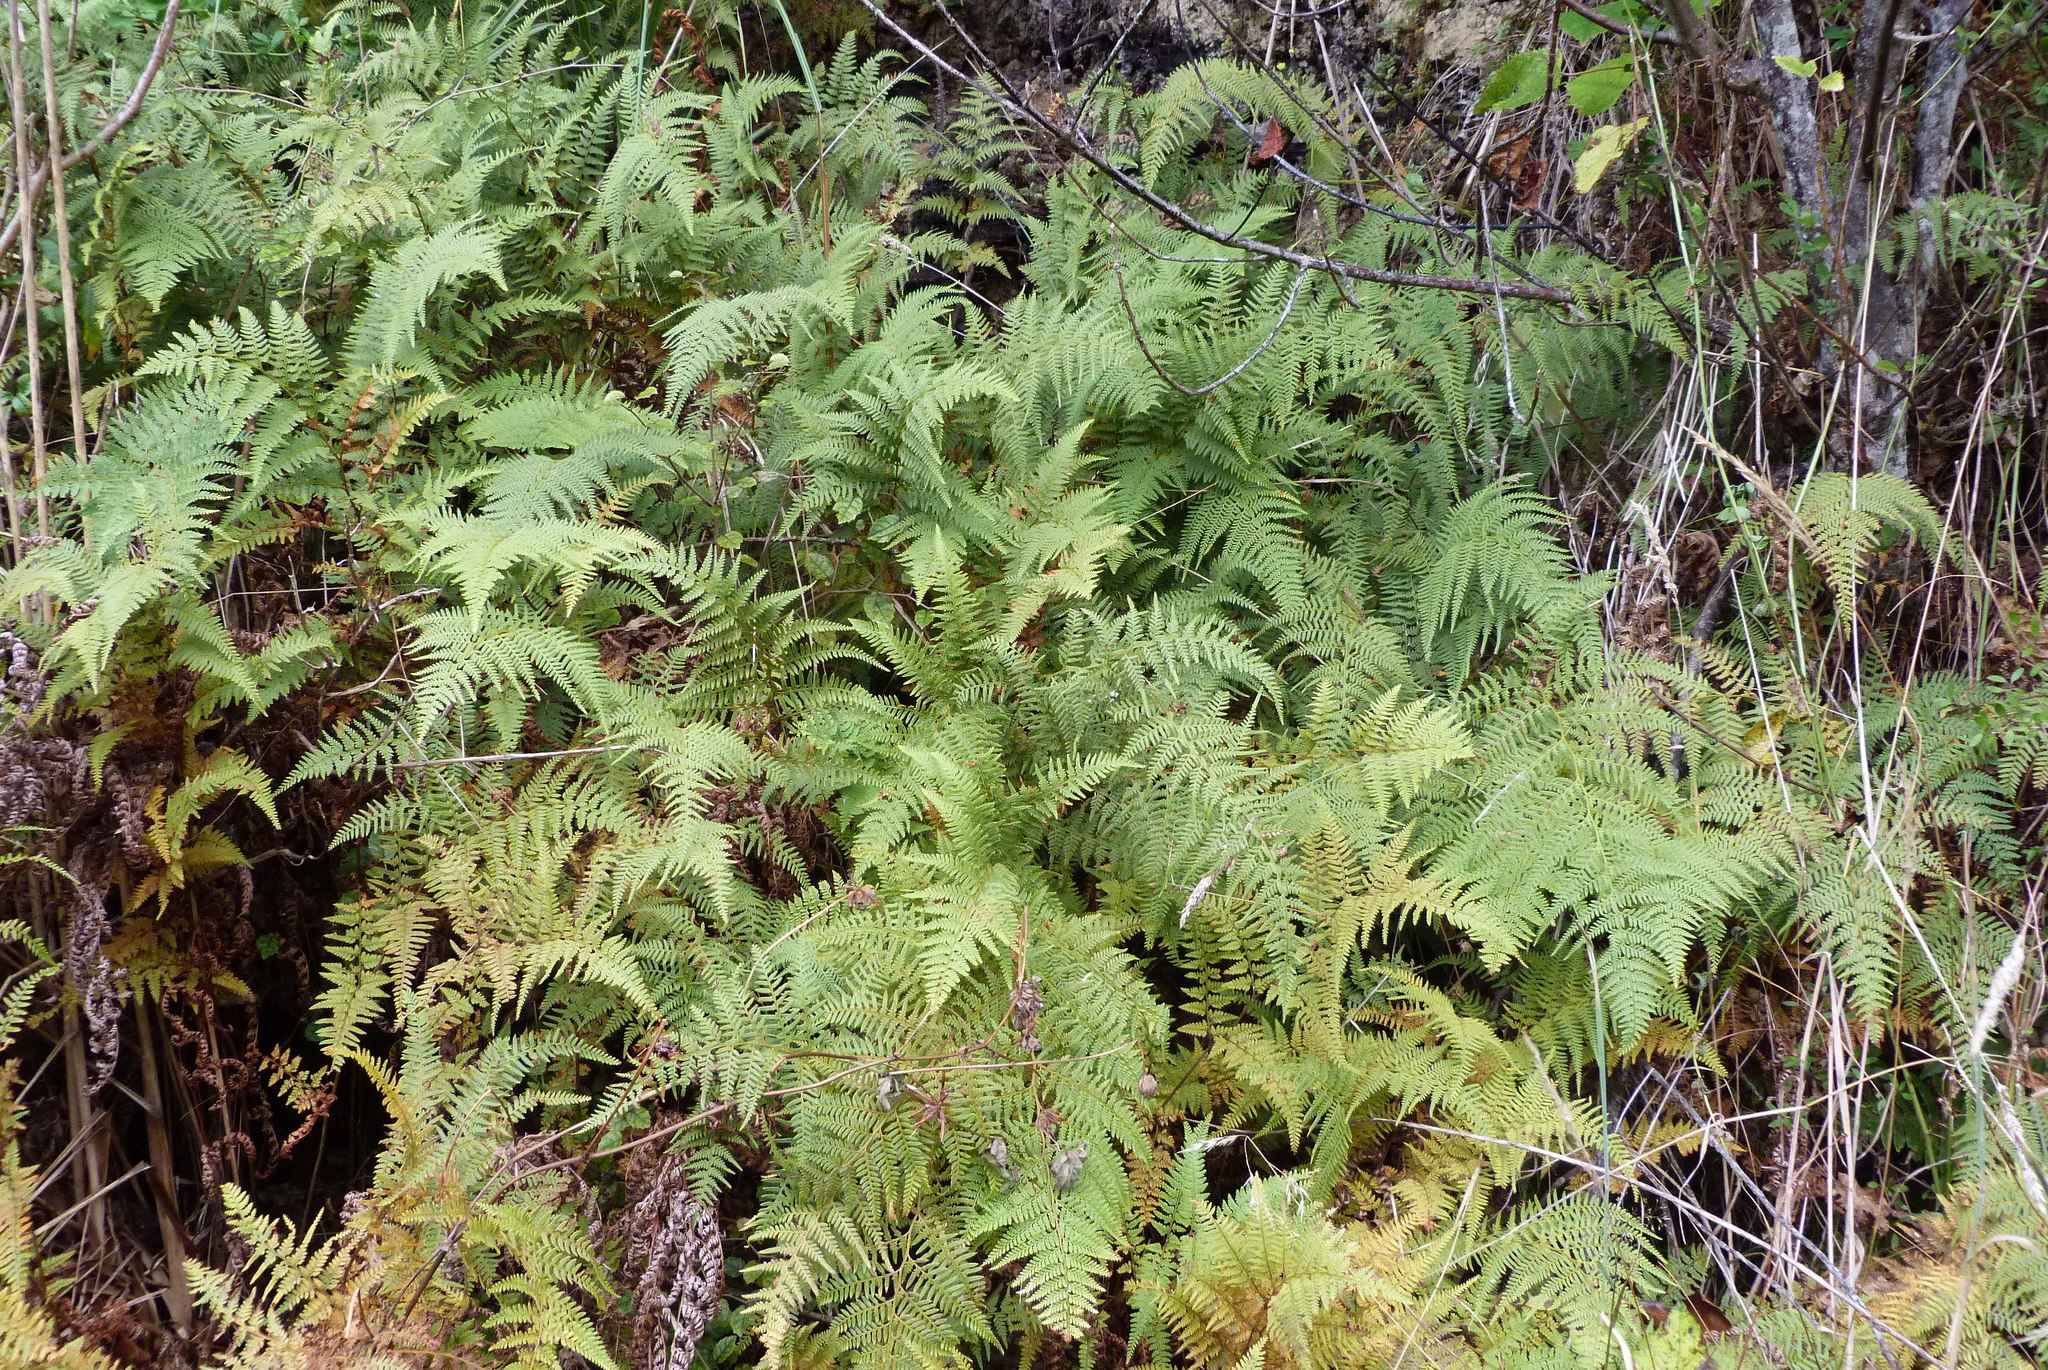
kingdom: Plantae
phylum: Tracheophyta
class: Polypodiopsida
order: Polypodiales
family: Dennstaedtiaceae
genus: Paesia
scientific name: Paesia scaberula
